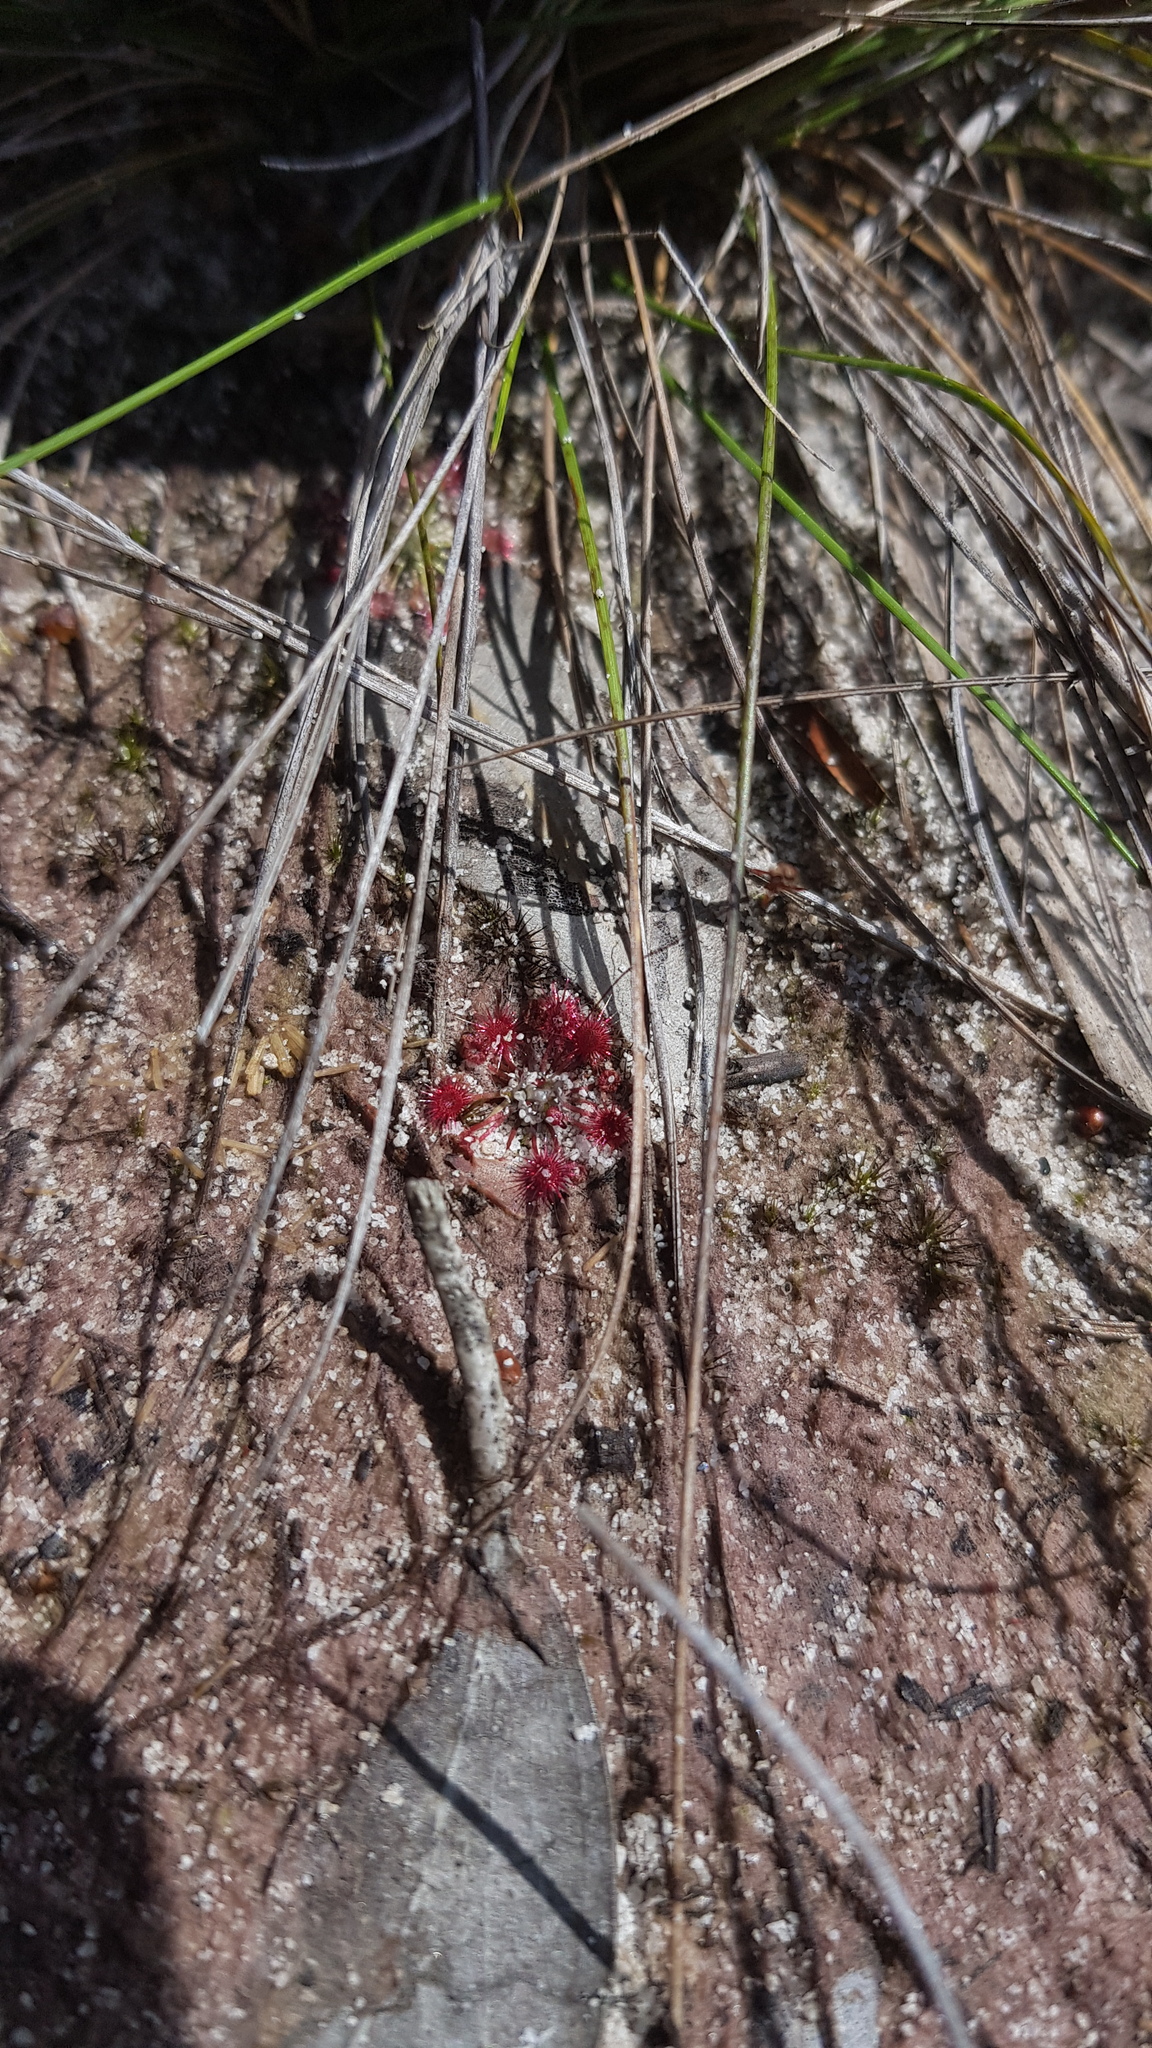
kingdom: Plantae
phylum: Tracheophyta
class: Magnoliopsida
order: Caryophyllales
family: Droseraceae
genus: Drosera
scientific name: Drosera pygmaea
